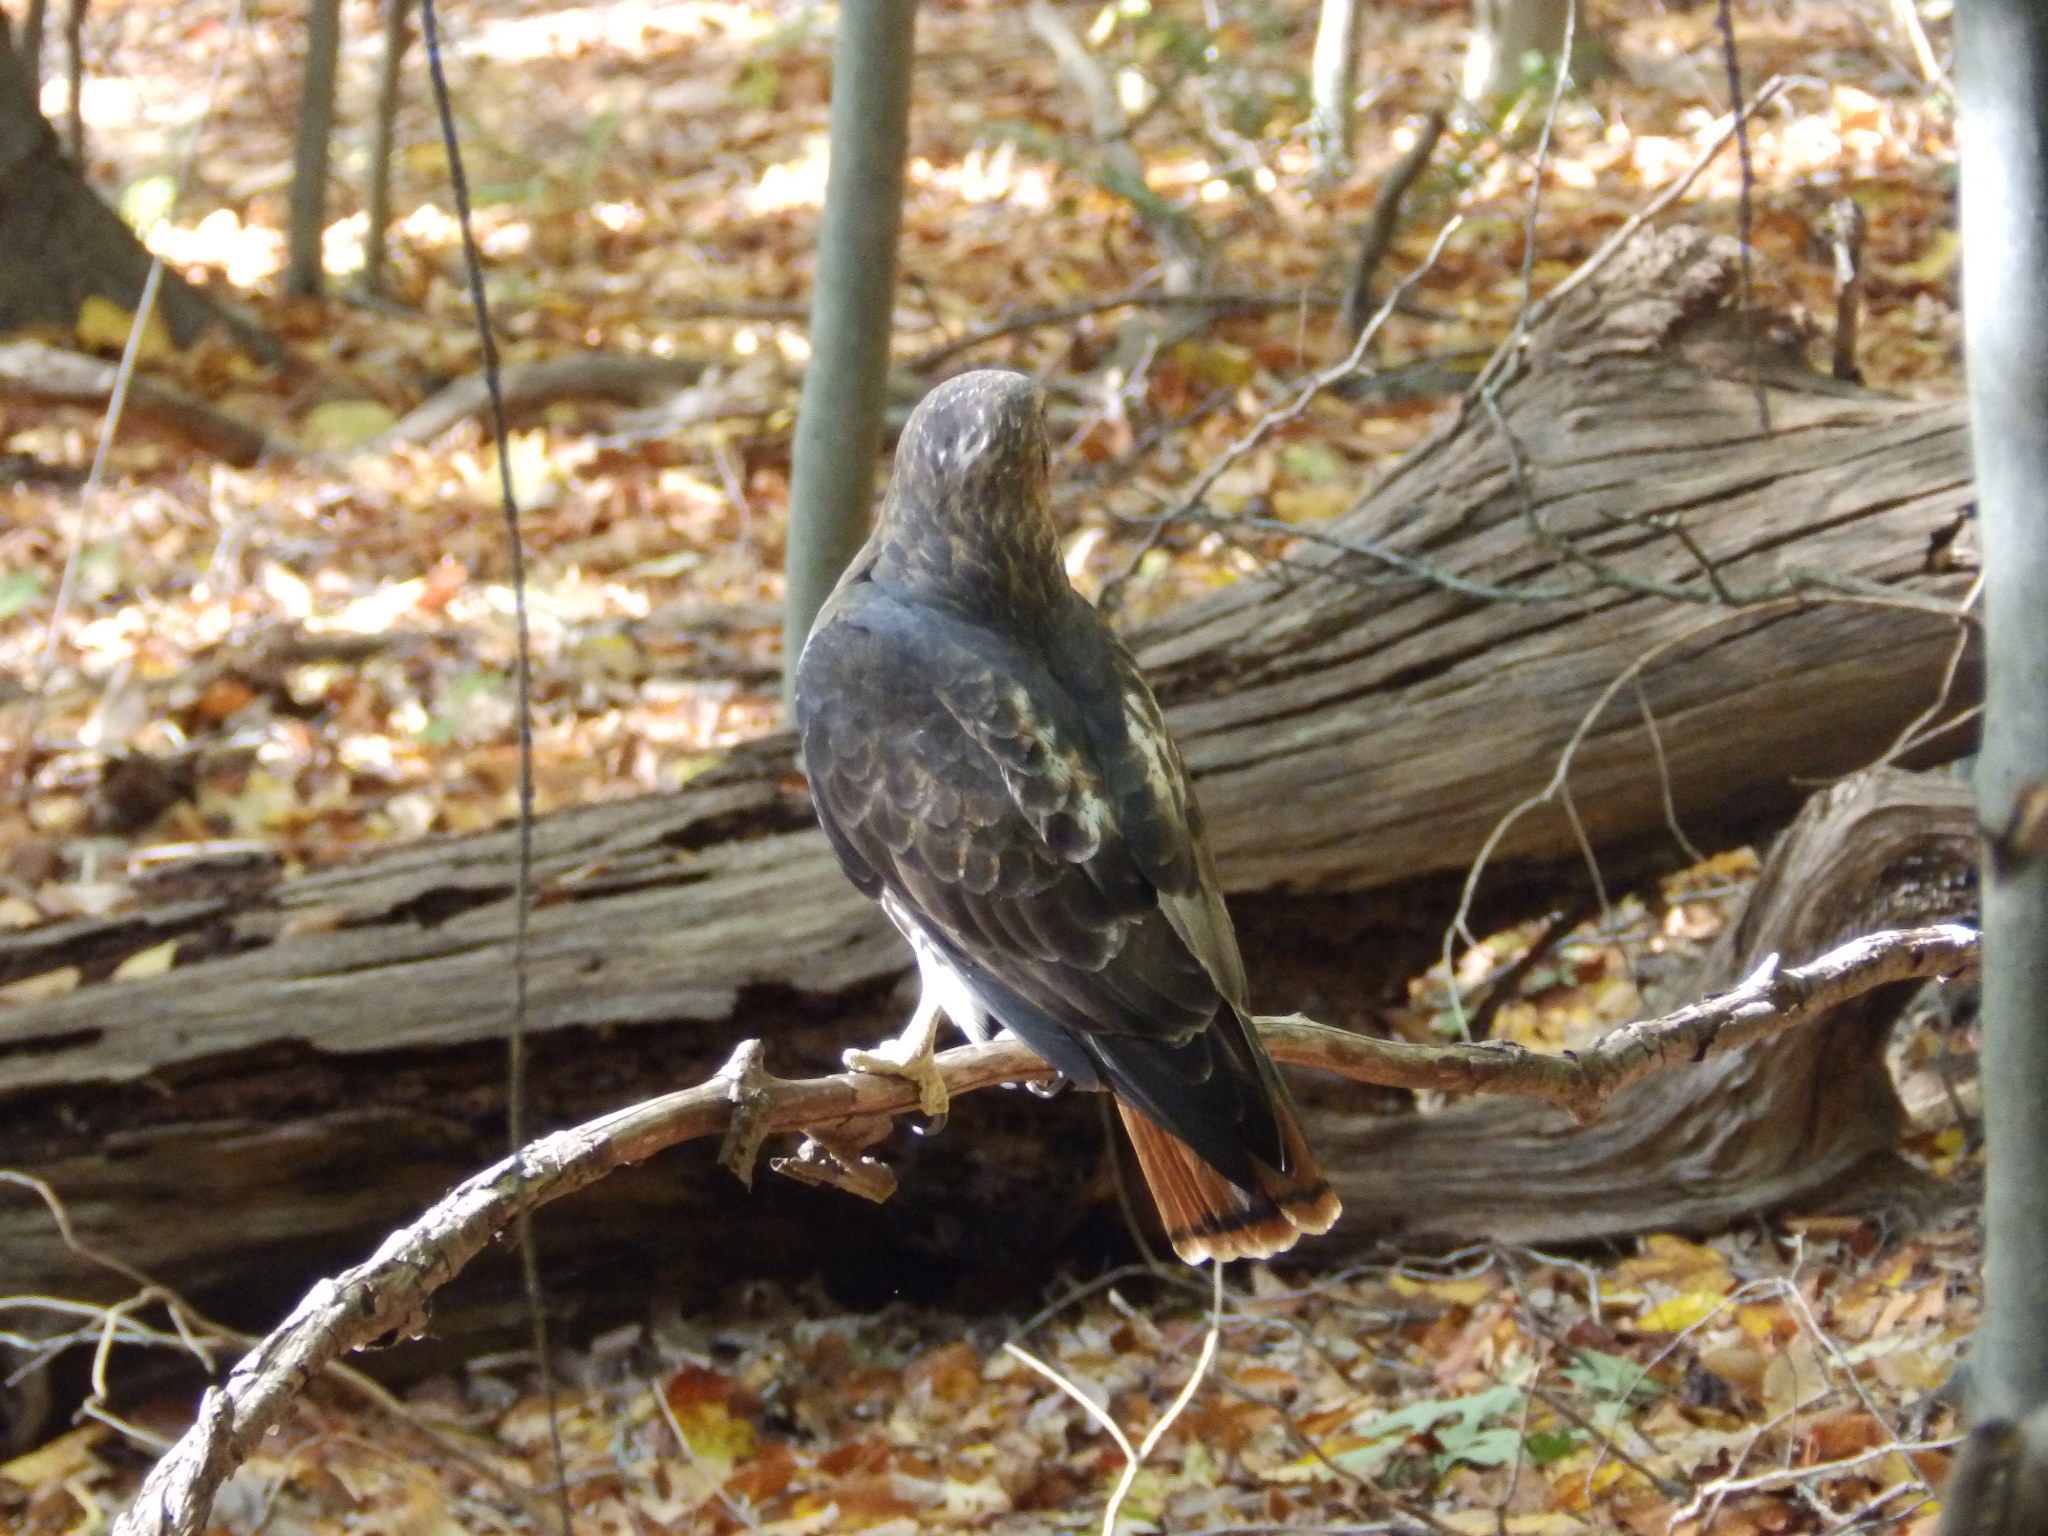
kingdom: Animalia
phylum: Chordata
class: Aves
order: Accipitriformes
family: Accipitridae
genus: Buteo
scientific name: Buteo jamaicensis
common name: Red-tailed hawk
